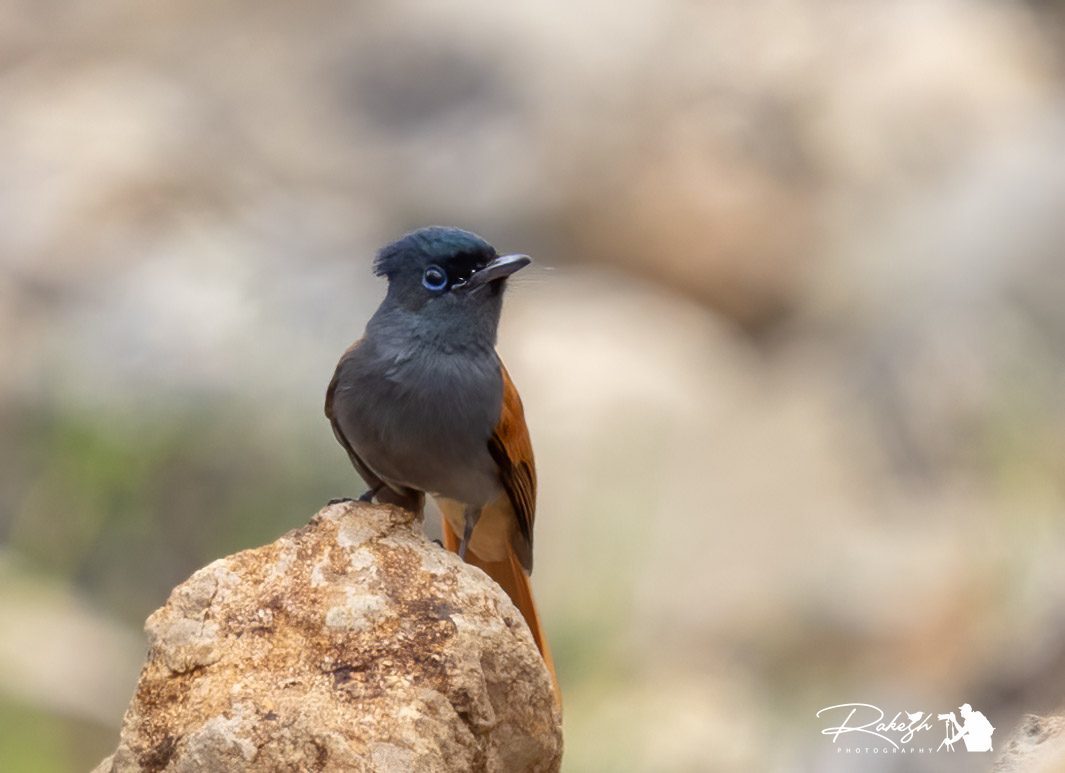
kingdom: Animalia
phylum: Chordata
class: Aves
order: Passeriformes
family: Monarchidae
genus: Terpsiphone
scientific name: Terpsiphone viridis
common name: African paradise flycatcher
